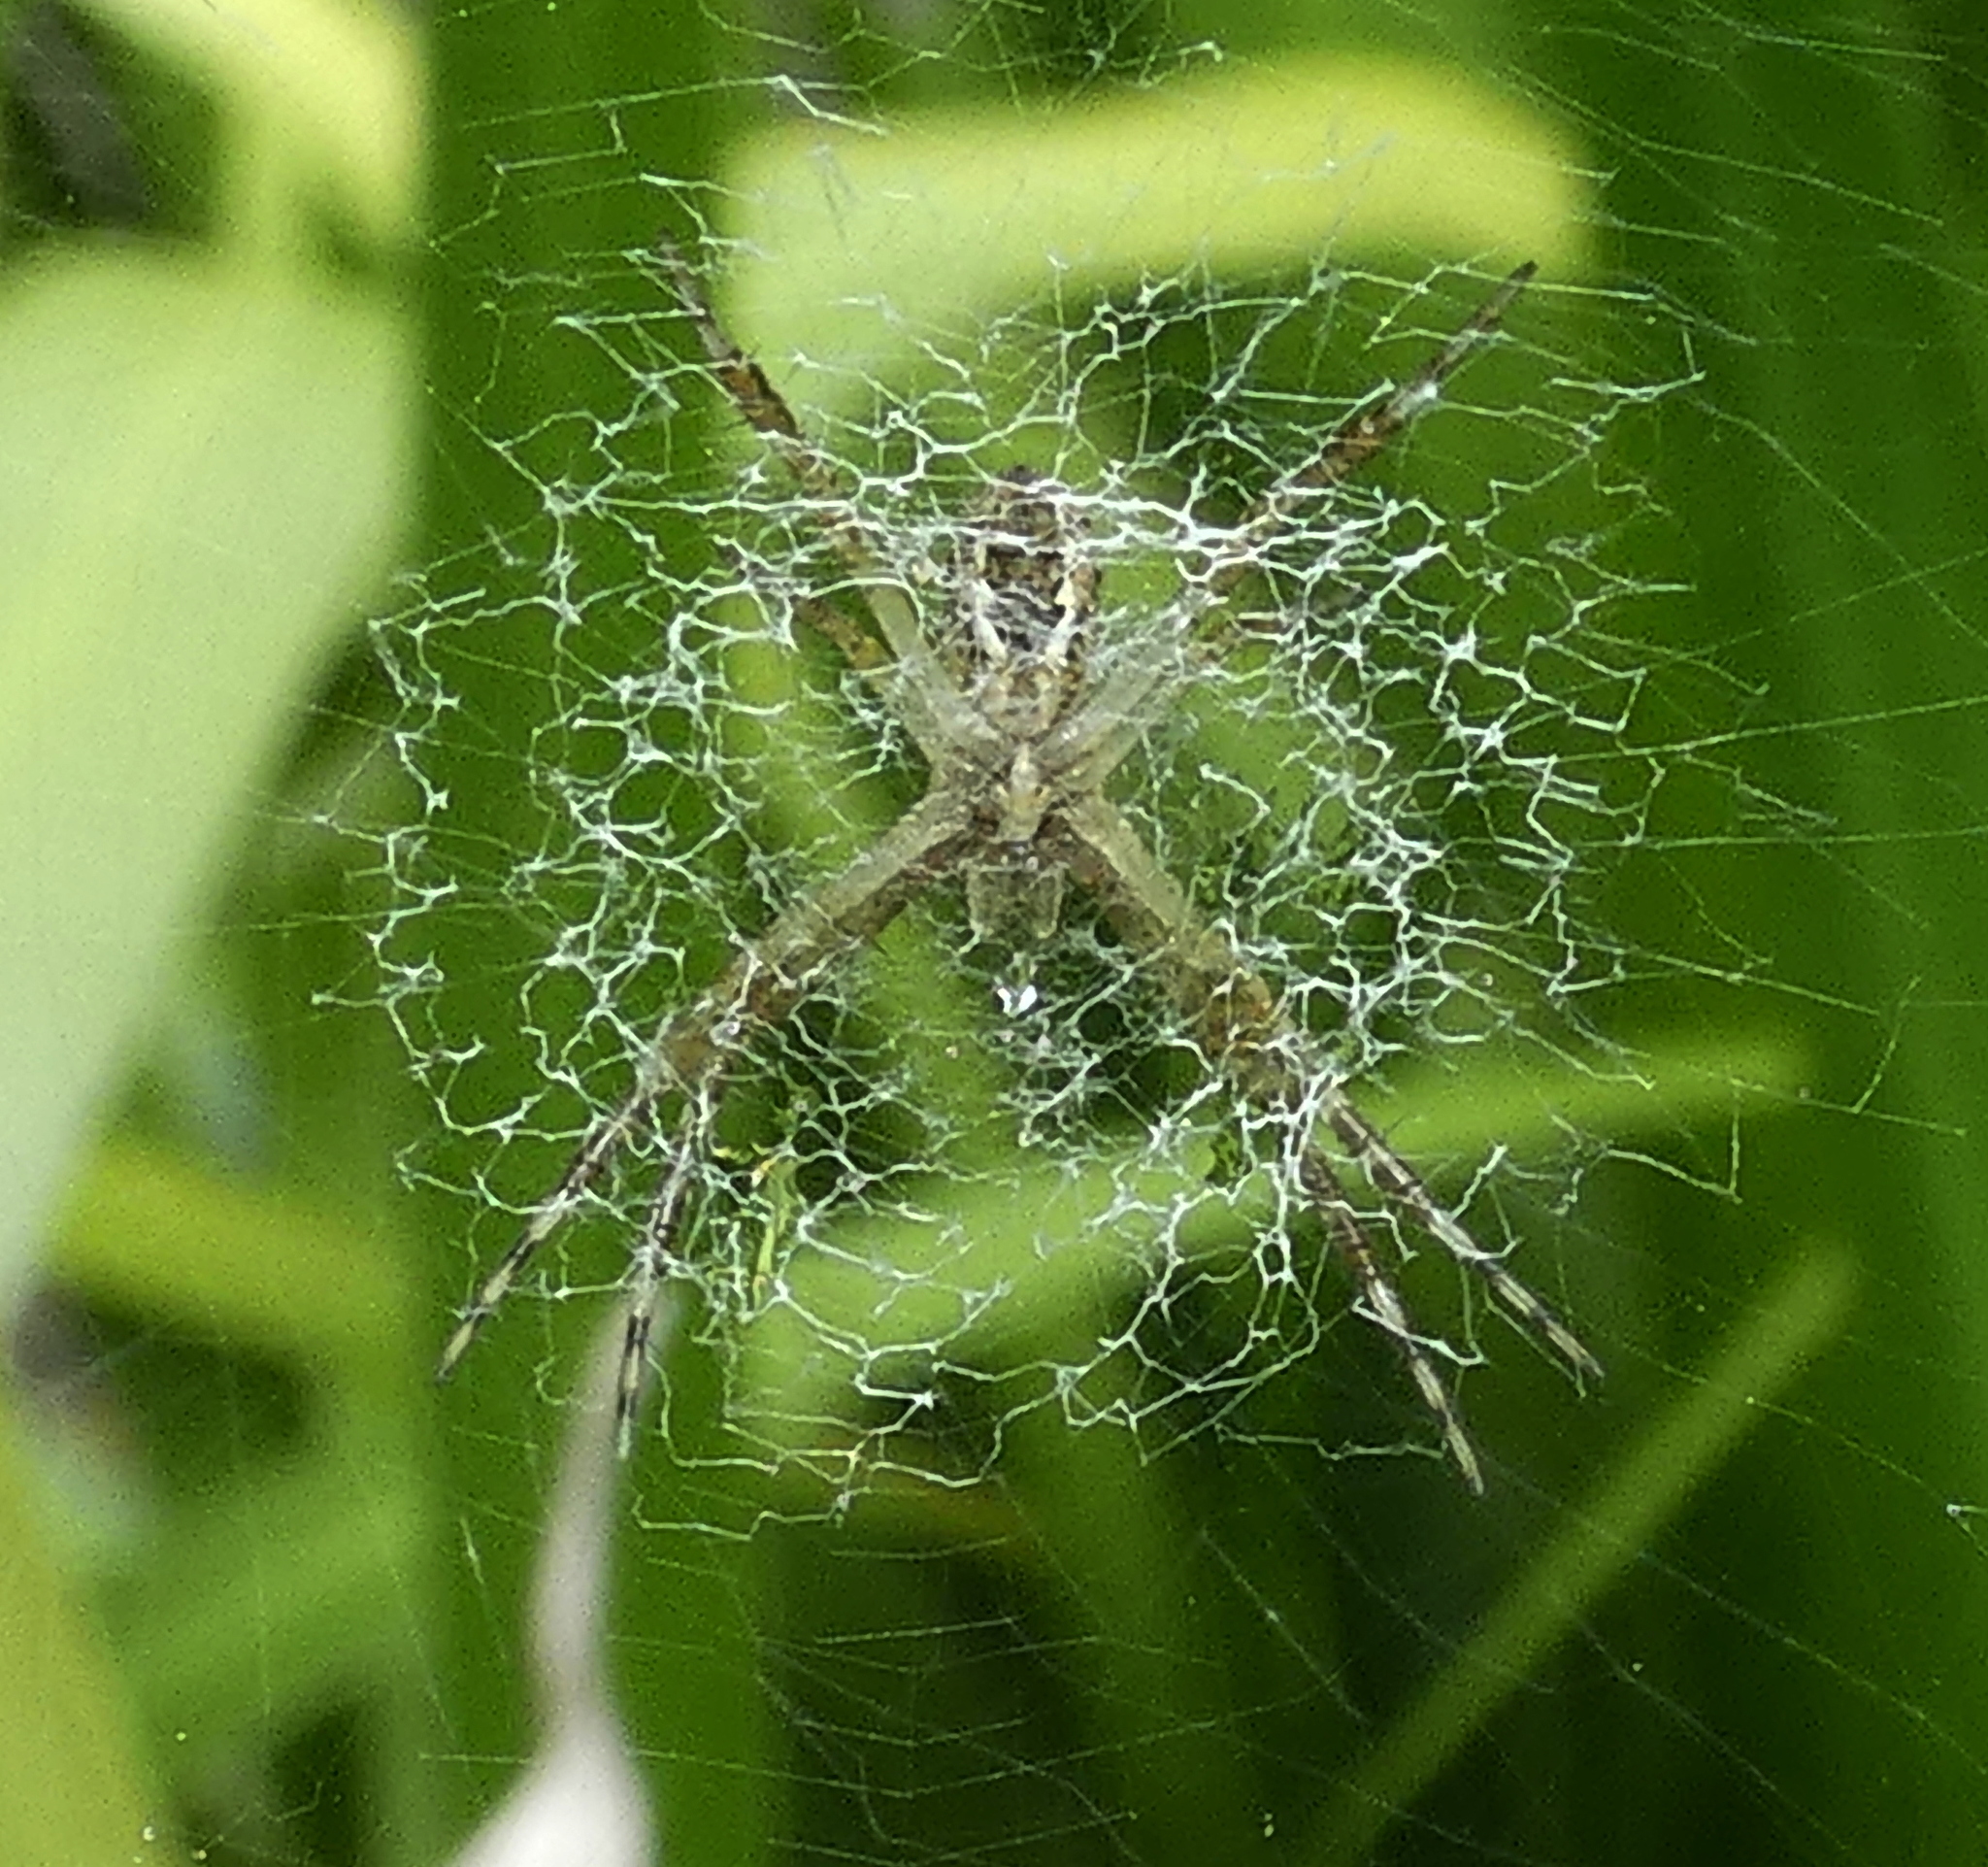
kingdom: Animalia
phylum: Arthropoda
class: Arachnida
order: Araneae
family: Araneidae
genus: Argiope
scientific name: Argiope argentata
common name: Orb weavers
